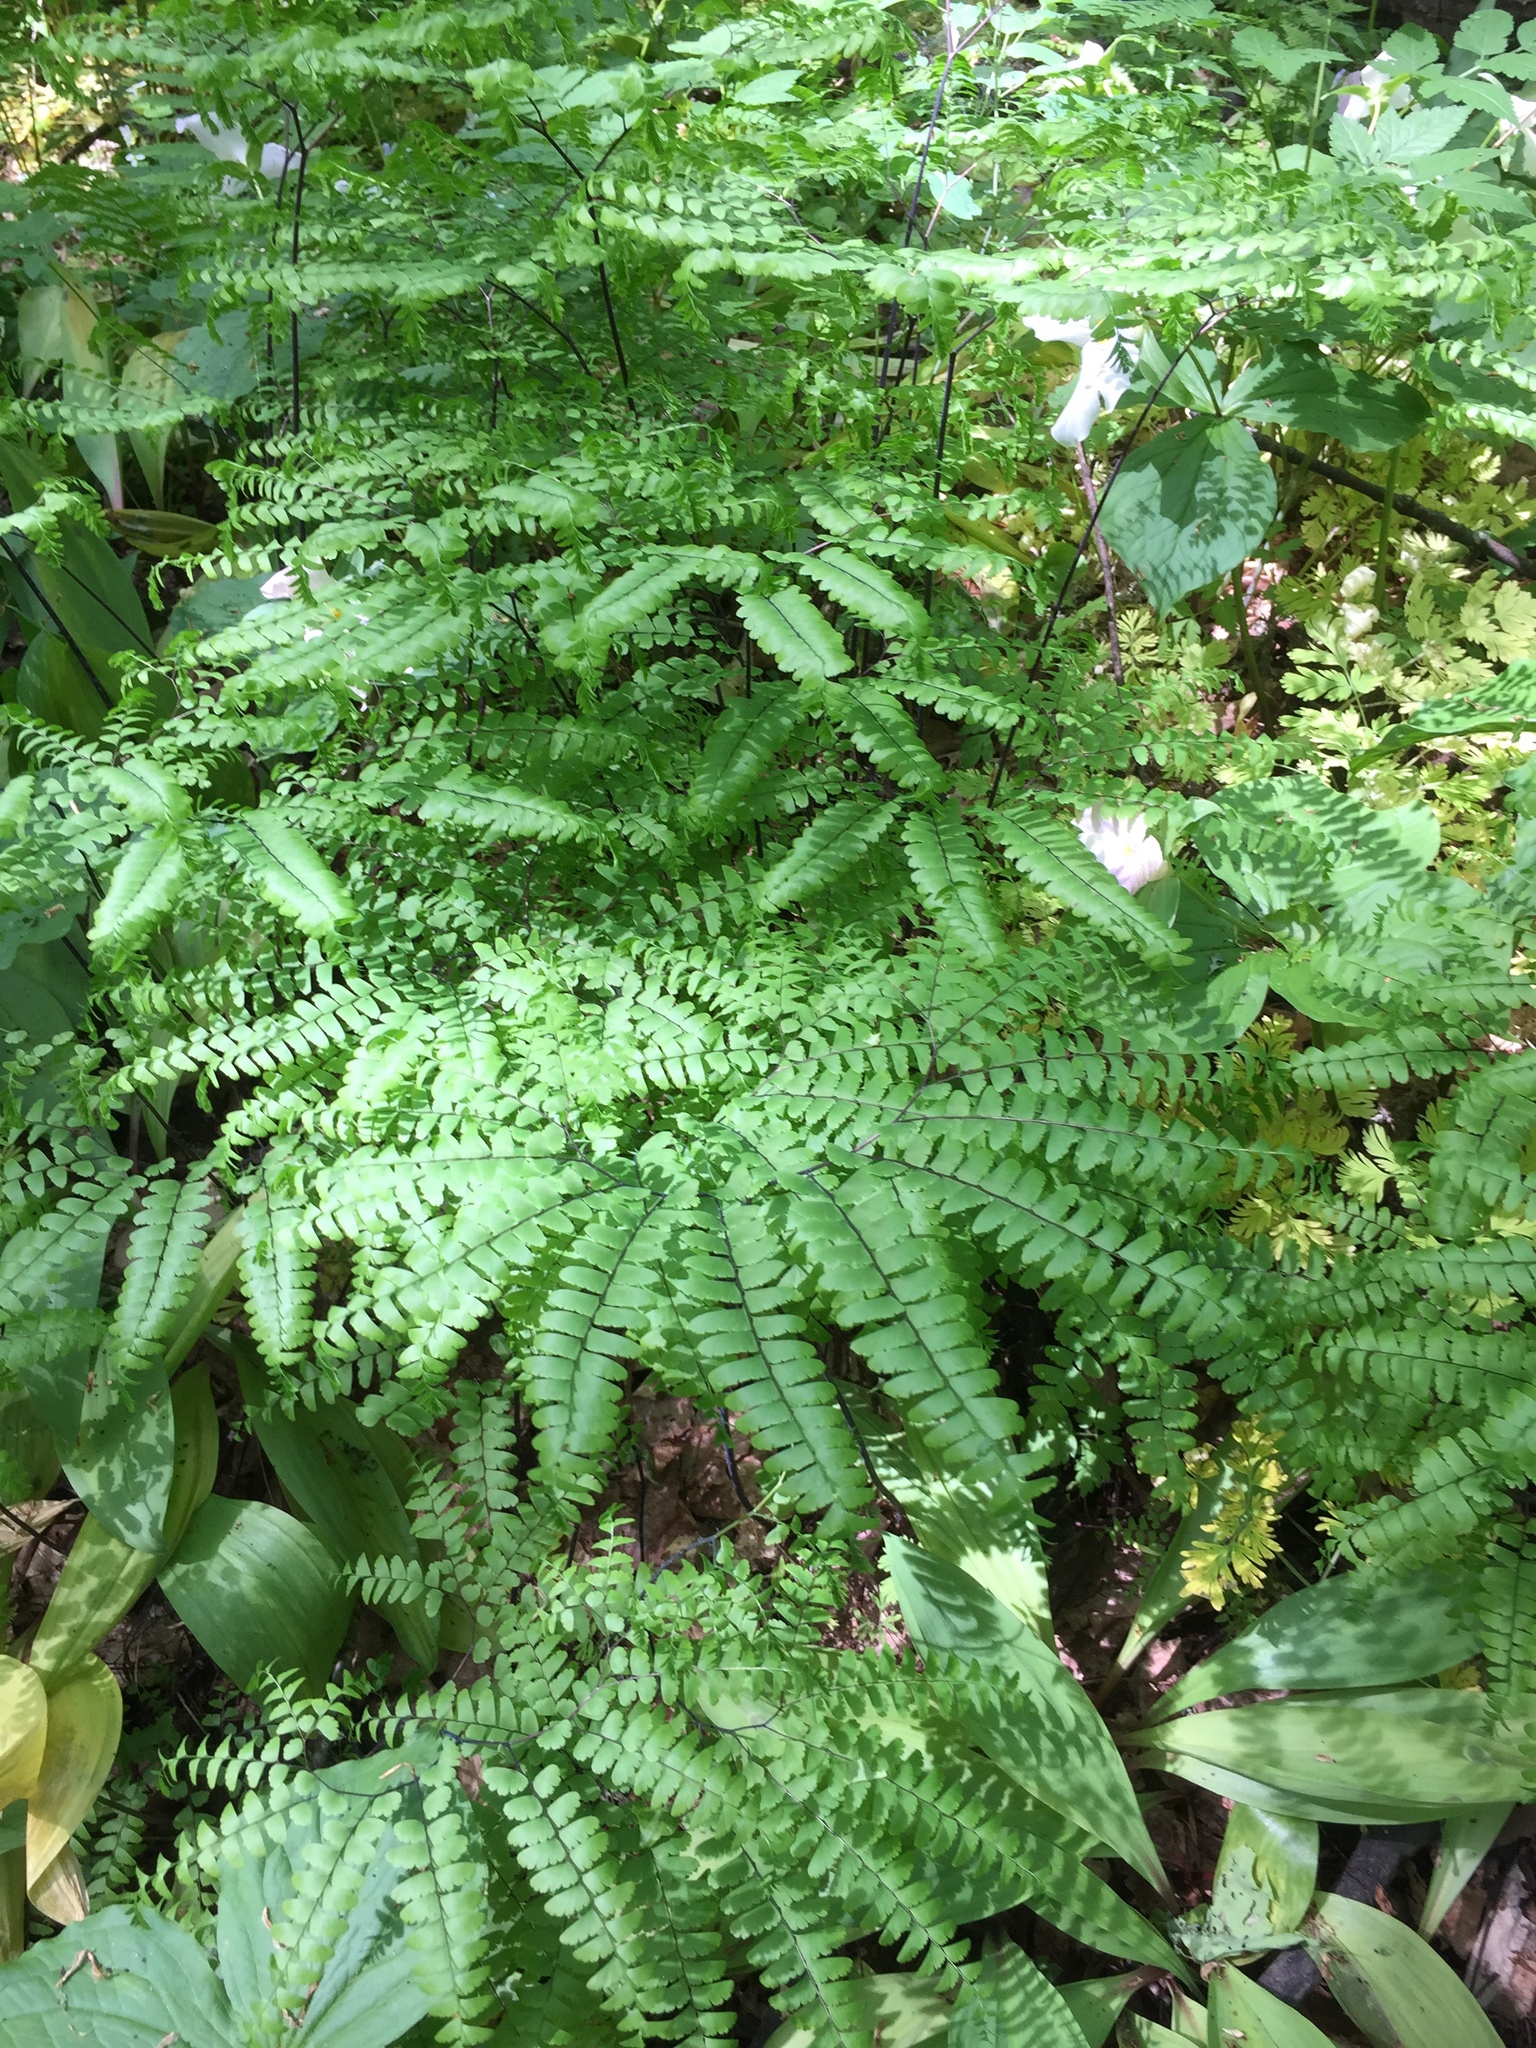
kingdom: Plantae
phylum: Tracheophyta
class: Polypodiopsida
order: Polypodiales
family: Pteridaceae
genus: Adiantum
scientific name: Adiantum pedatum
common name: Five-finger fern
